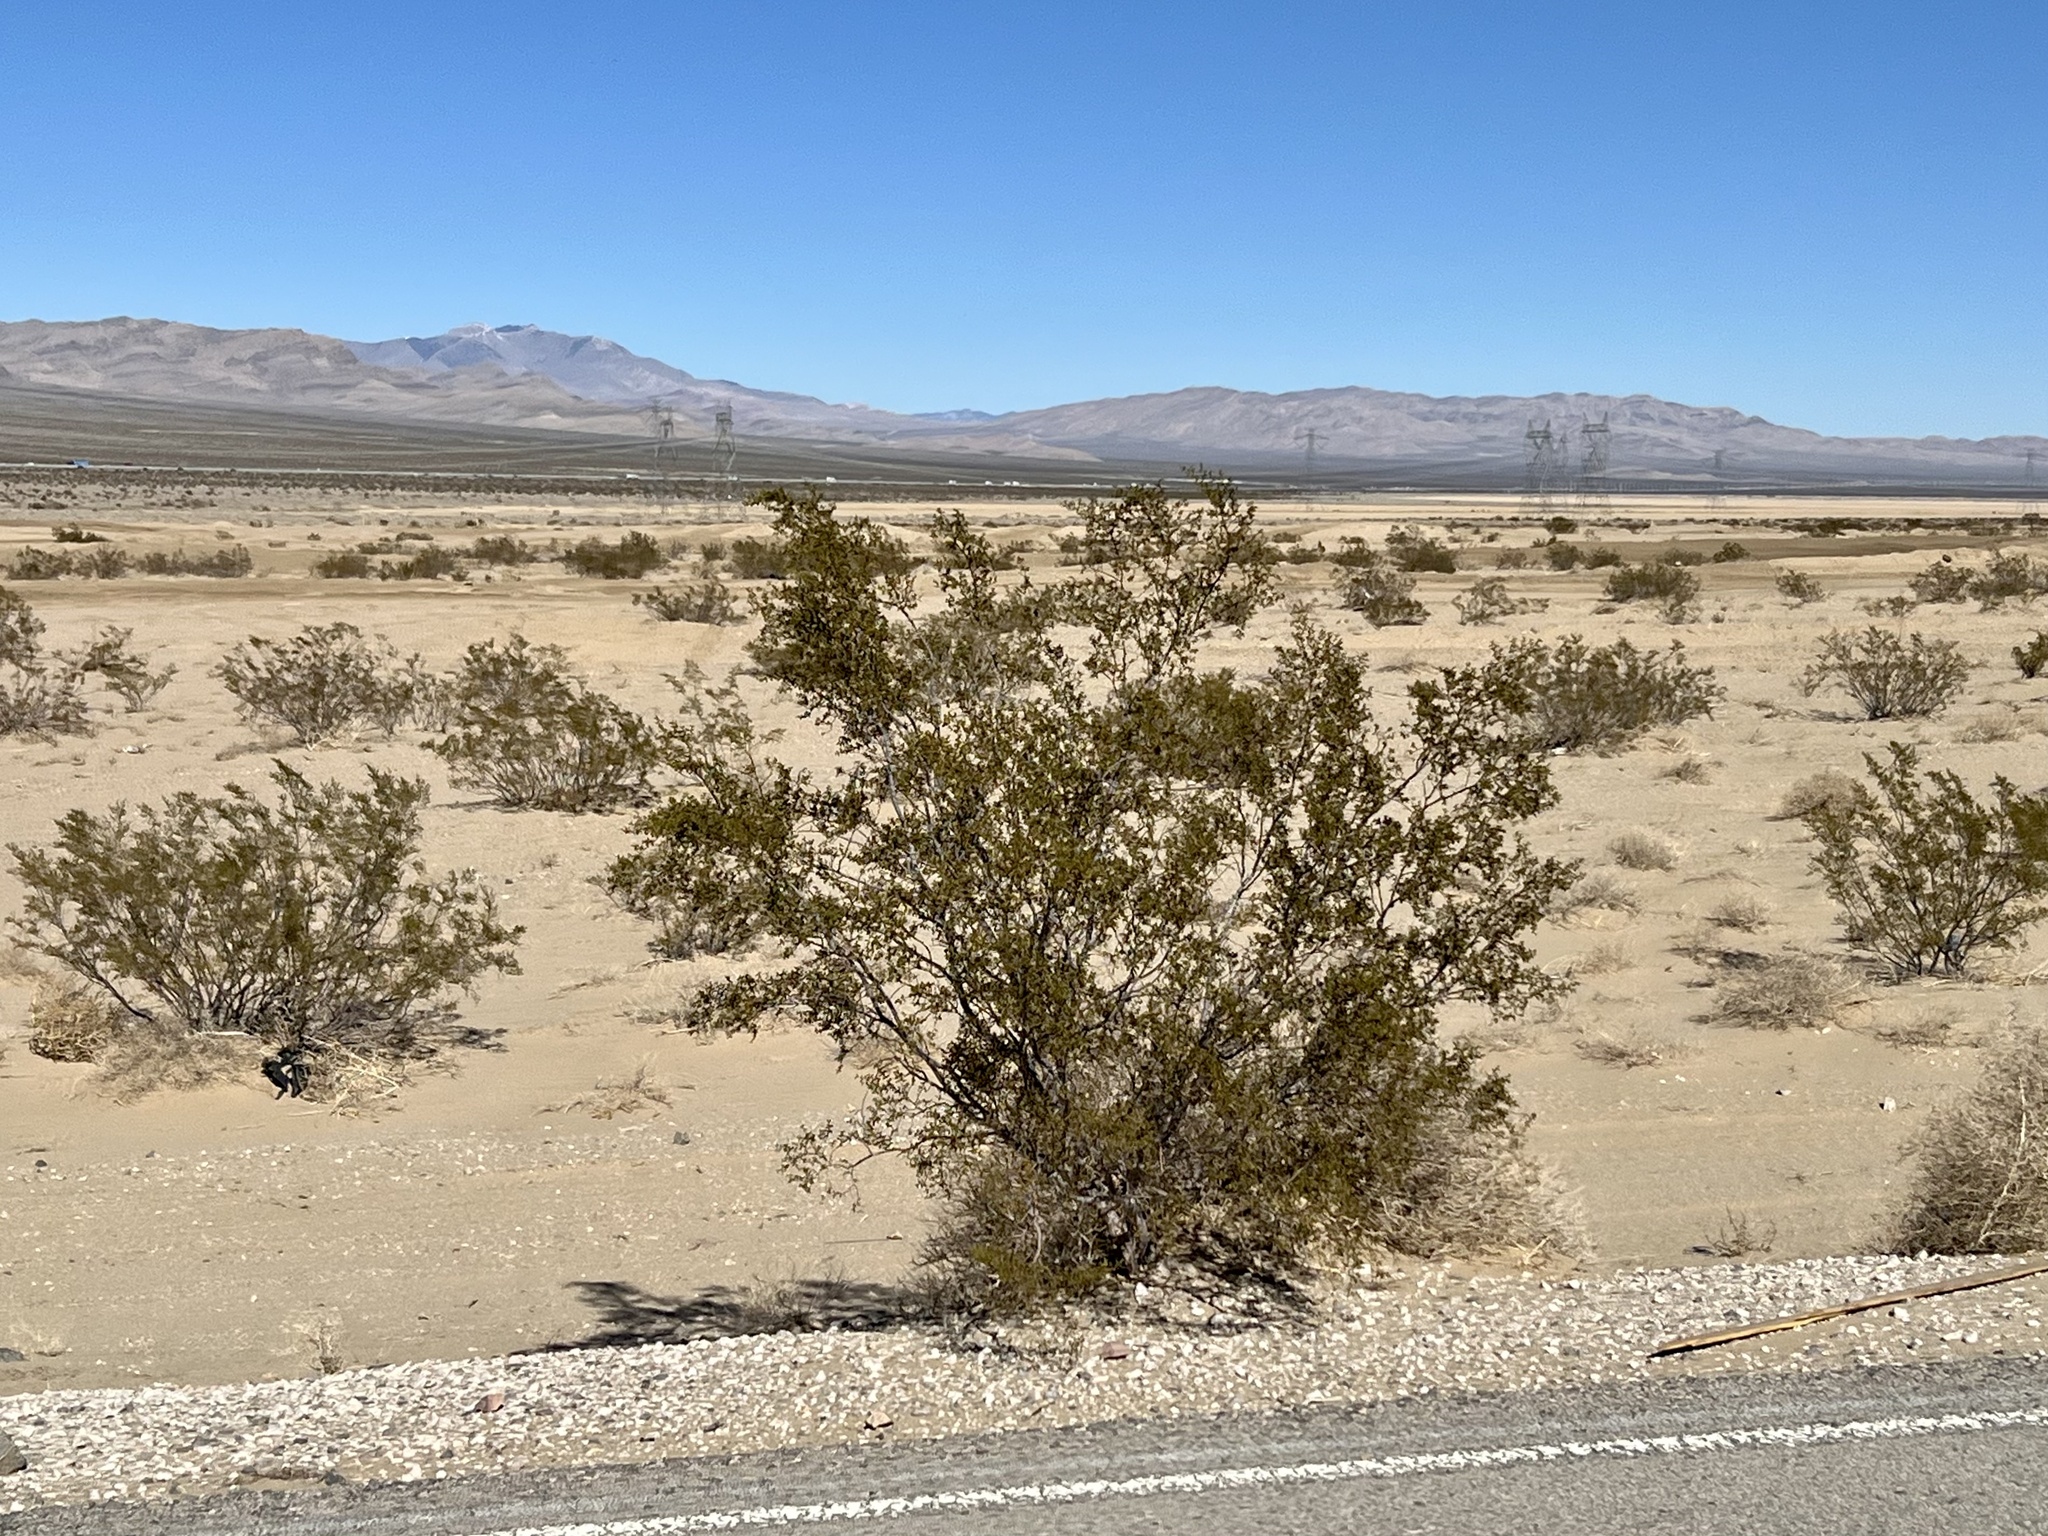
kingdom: Plantae
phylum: Tracheophyta
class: Magnoliopsida
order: Zygophyllales
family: Zygophyllaceae
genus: Larrea
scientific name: Larrea tridentata
